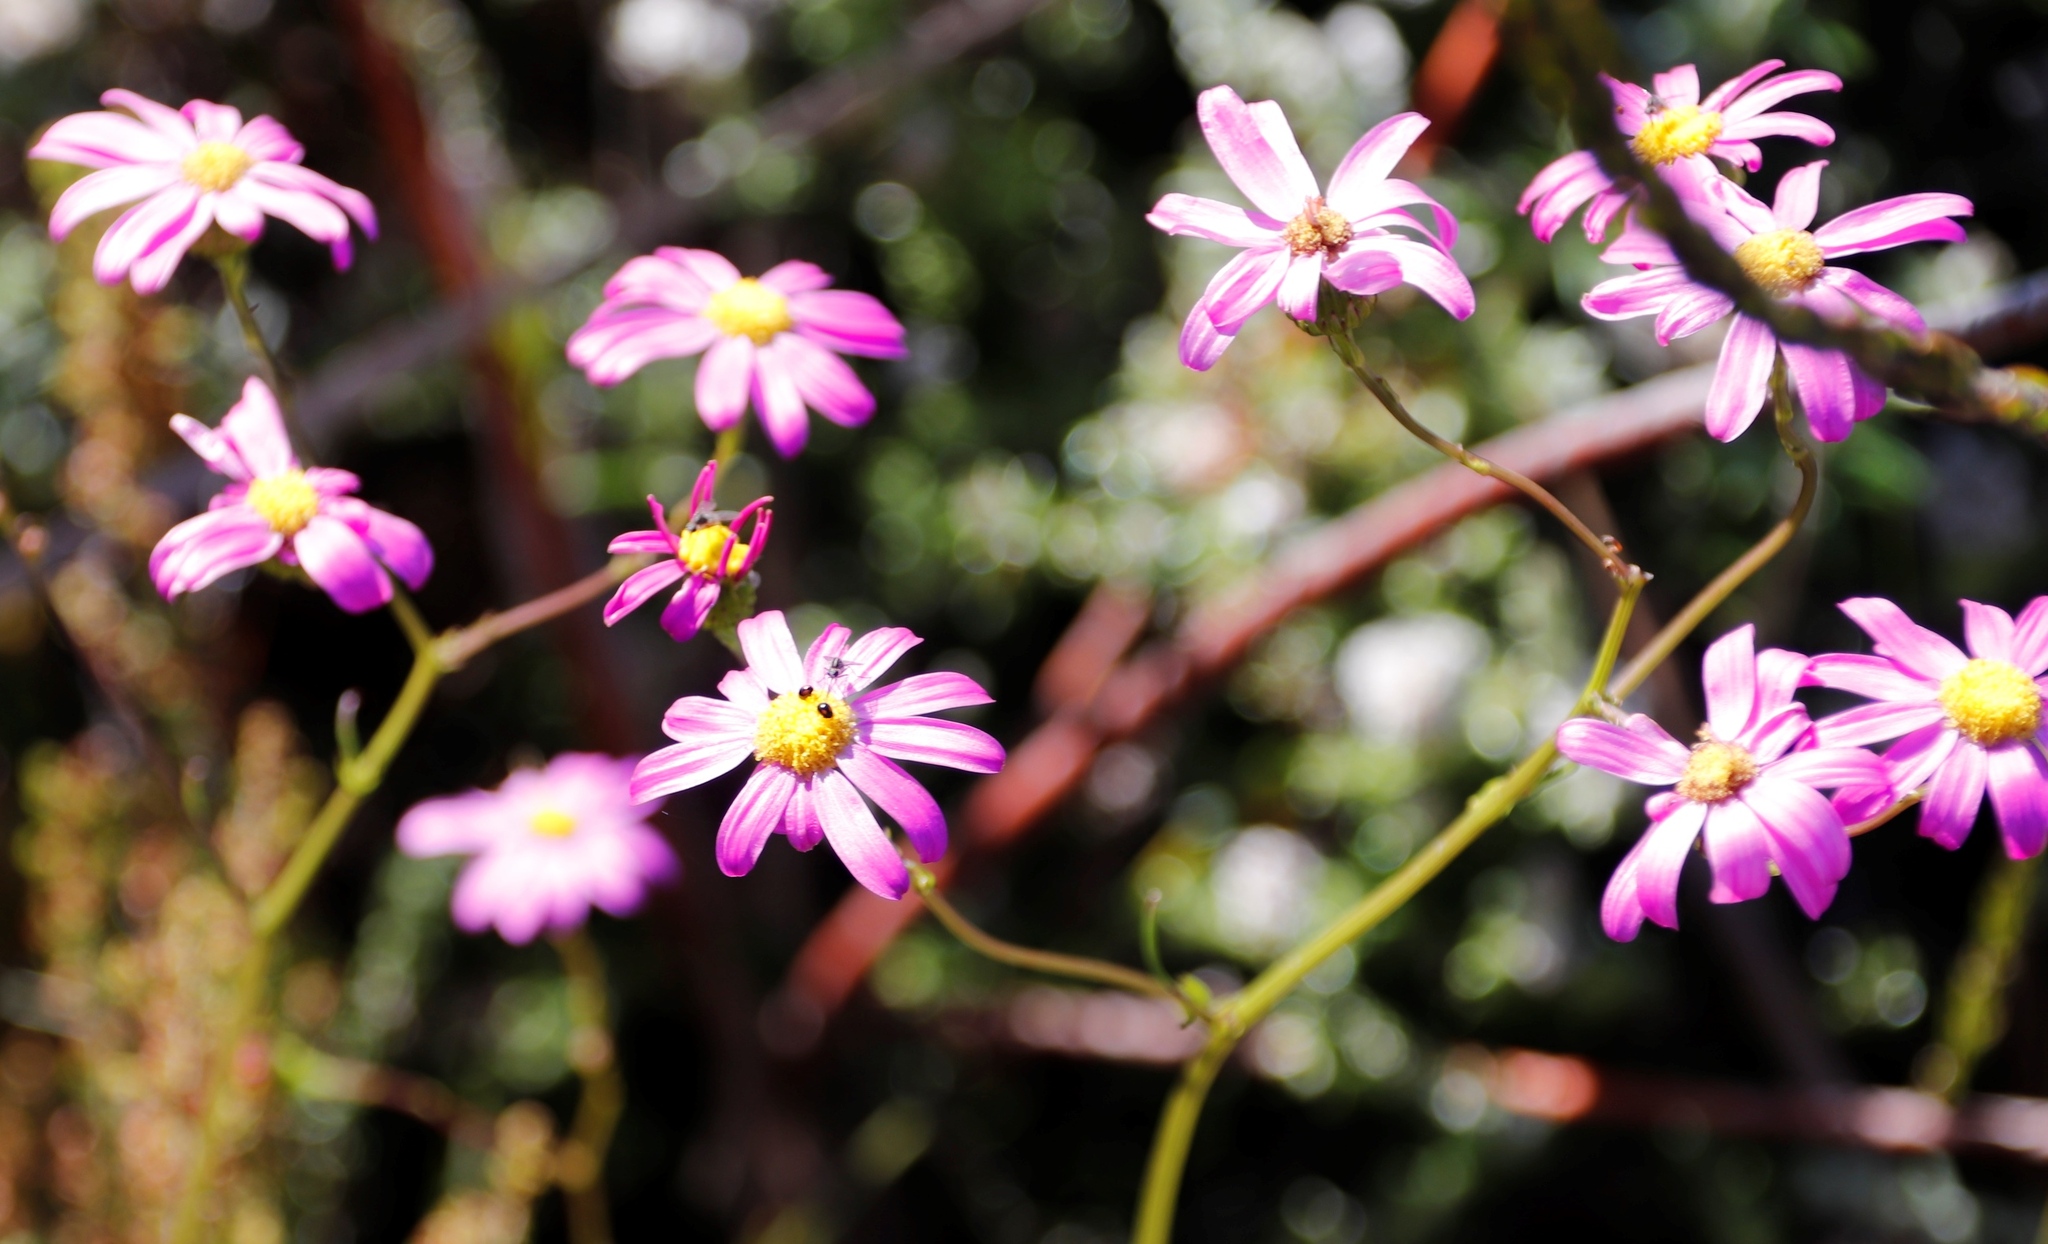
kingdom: Plantae
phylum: Tracheophyta
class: Magnoliopsida
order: Asterales
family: Asteraceae
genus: Senecio
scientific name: Senecio umbellatus
